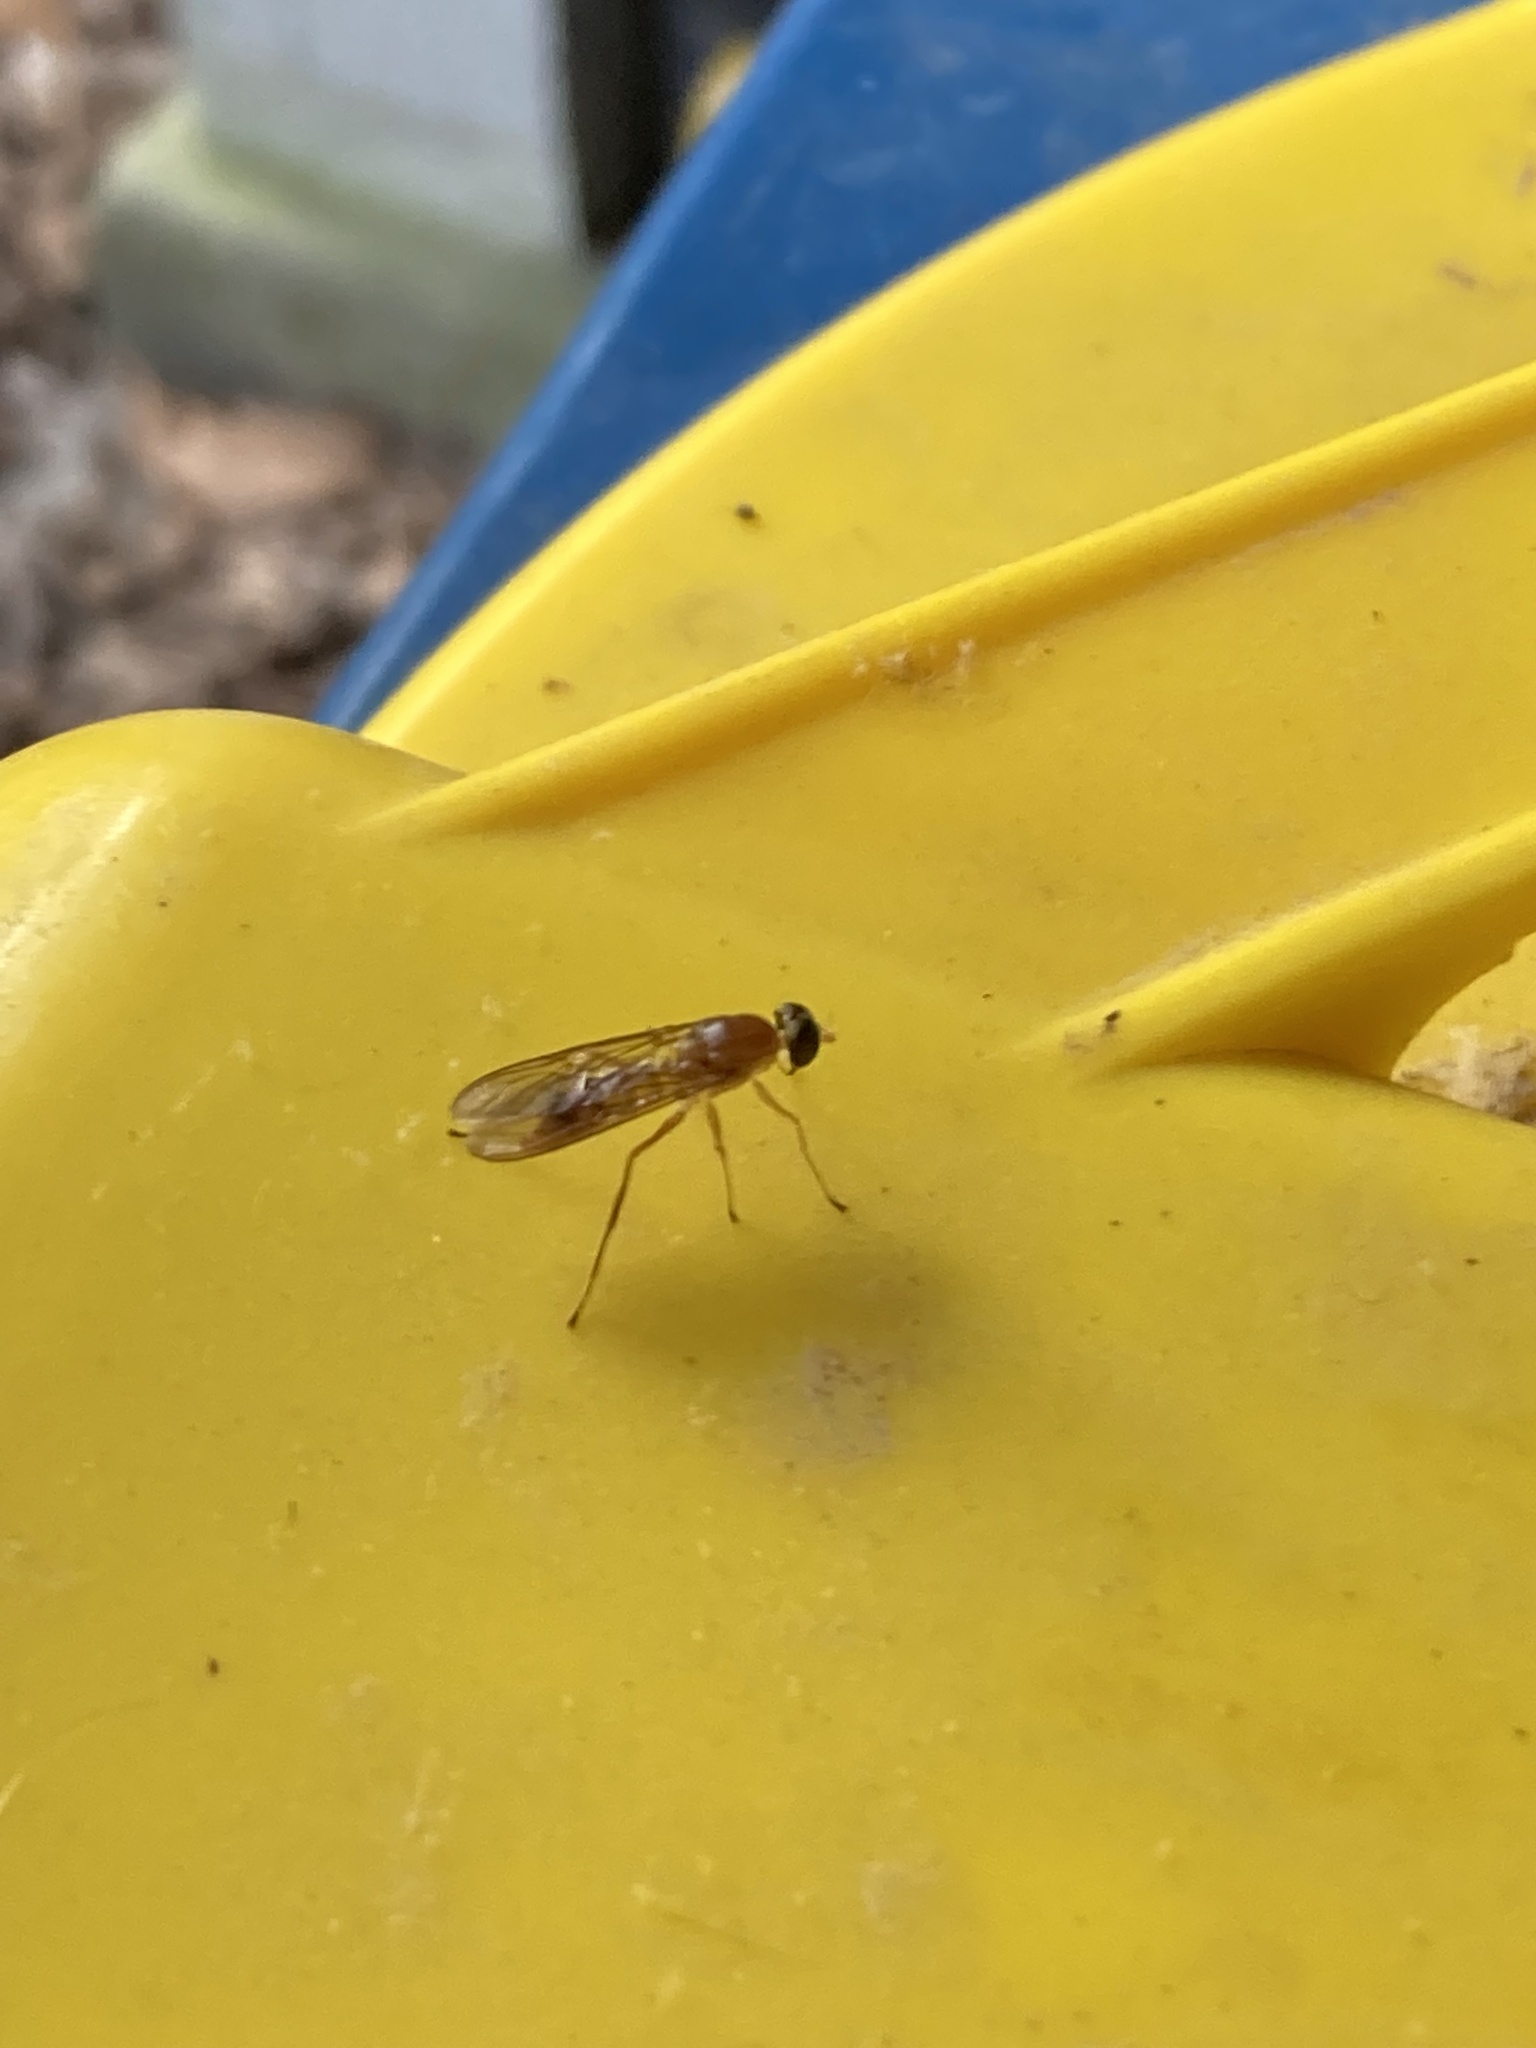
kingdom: Animalia
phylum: Arthropoda
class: Insecta
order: Diptera
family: Stratiomyidae
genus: Ptecticus
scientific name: Ptecticus trivittatus
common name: Compost fly
